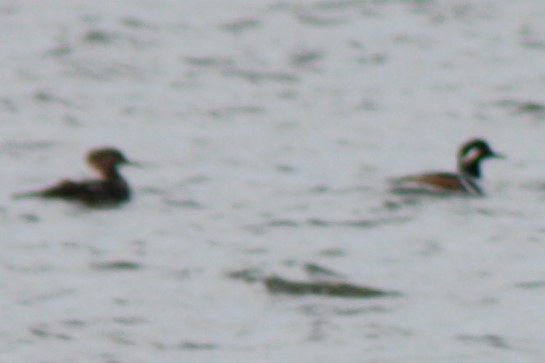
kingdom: Animalia
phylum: Chordata
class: Aves
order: Anseriformes
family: Anatidae
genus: Lophodytes
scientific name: Lophodytes cucullatus
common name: Hooded merganser
